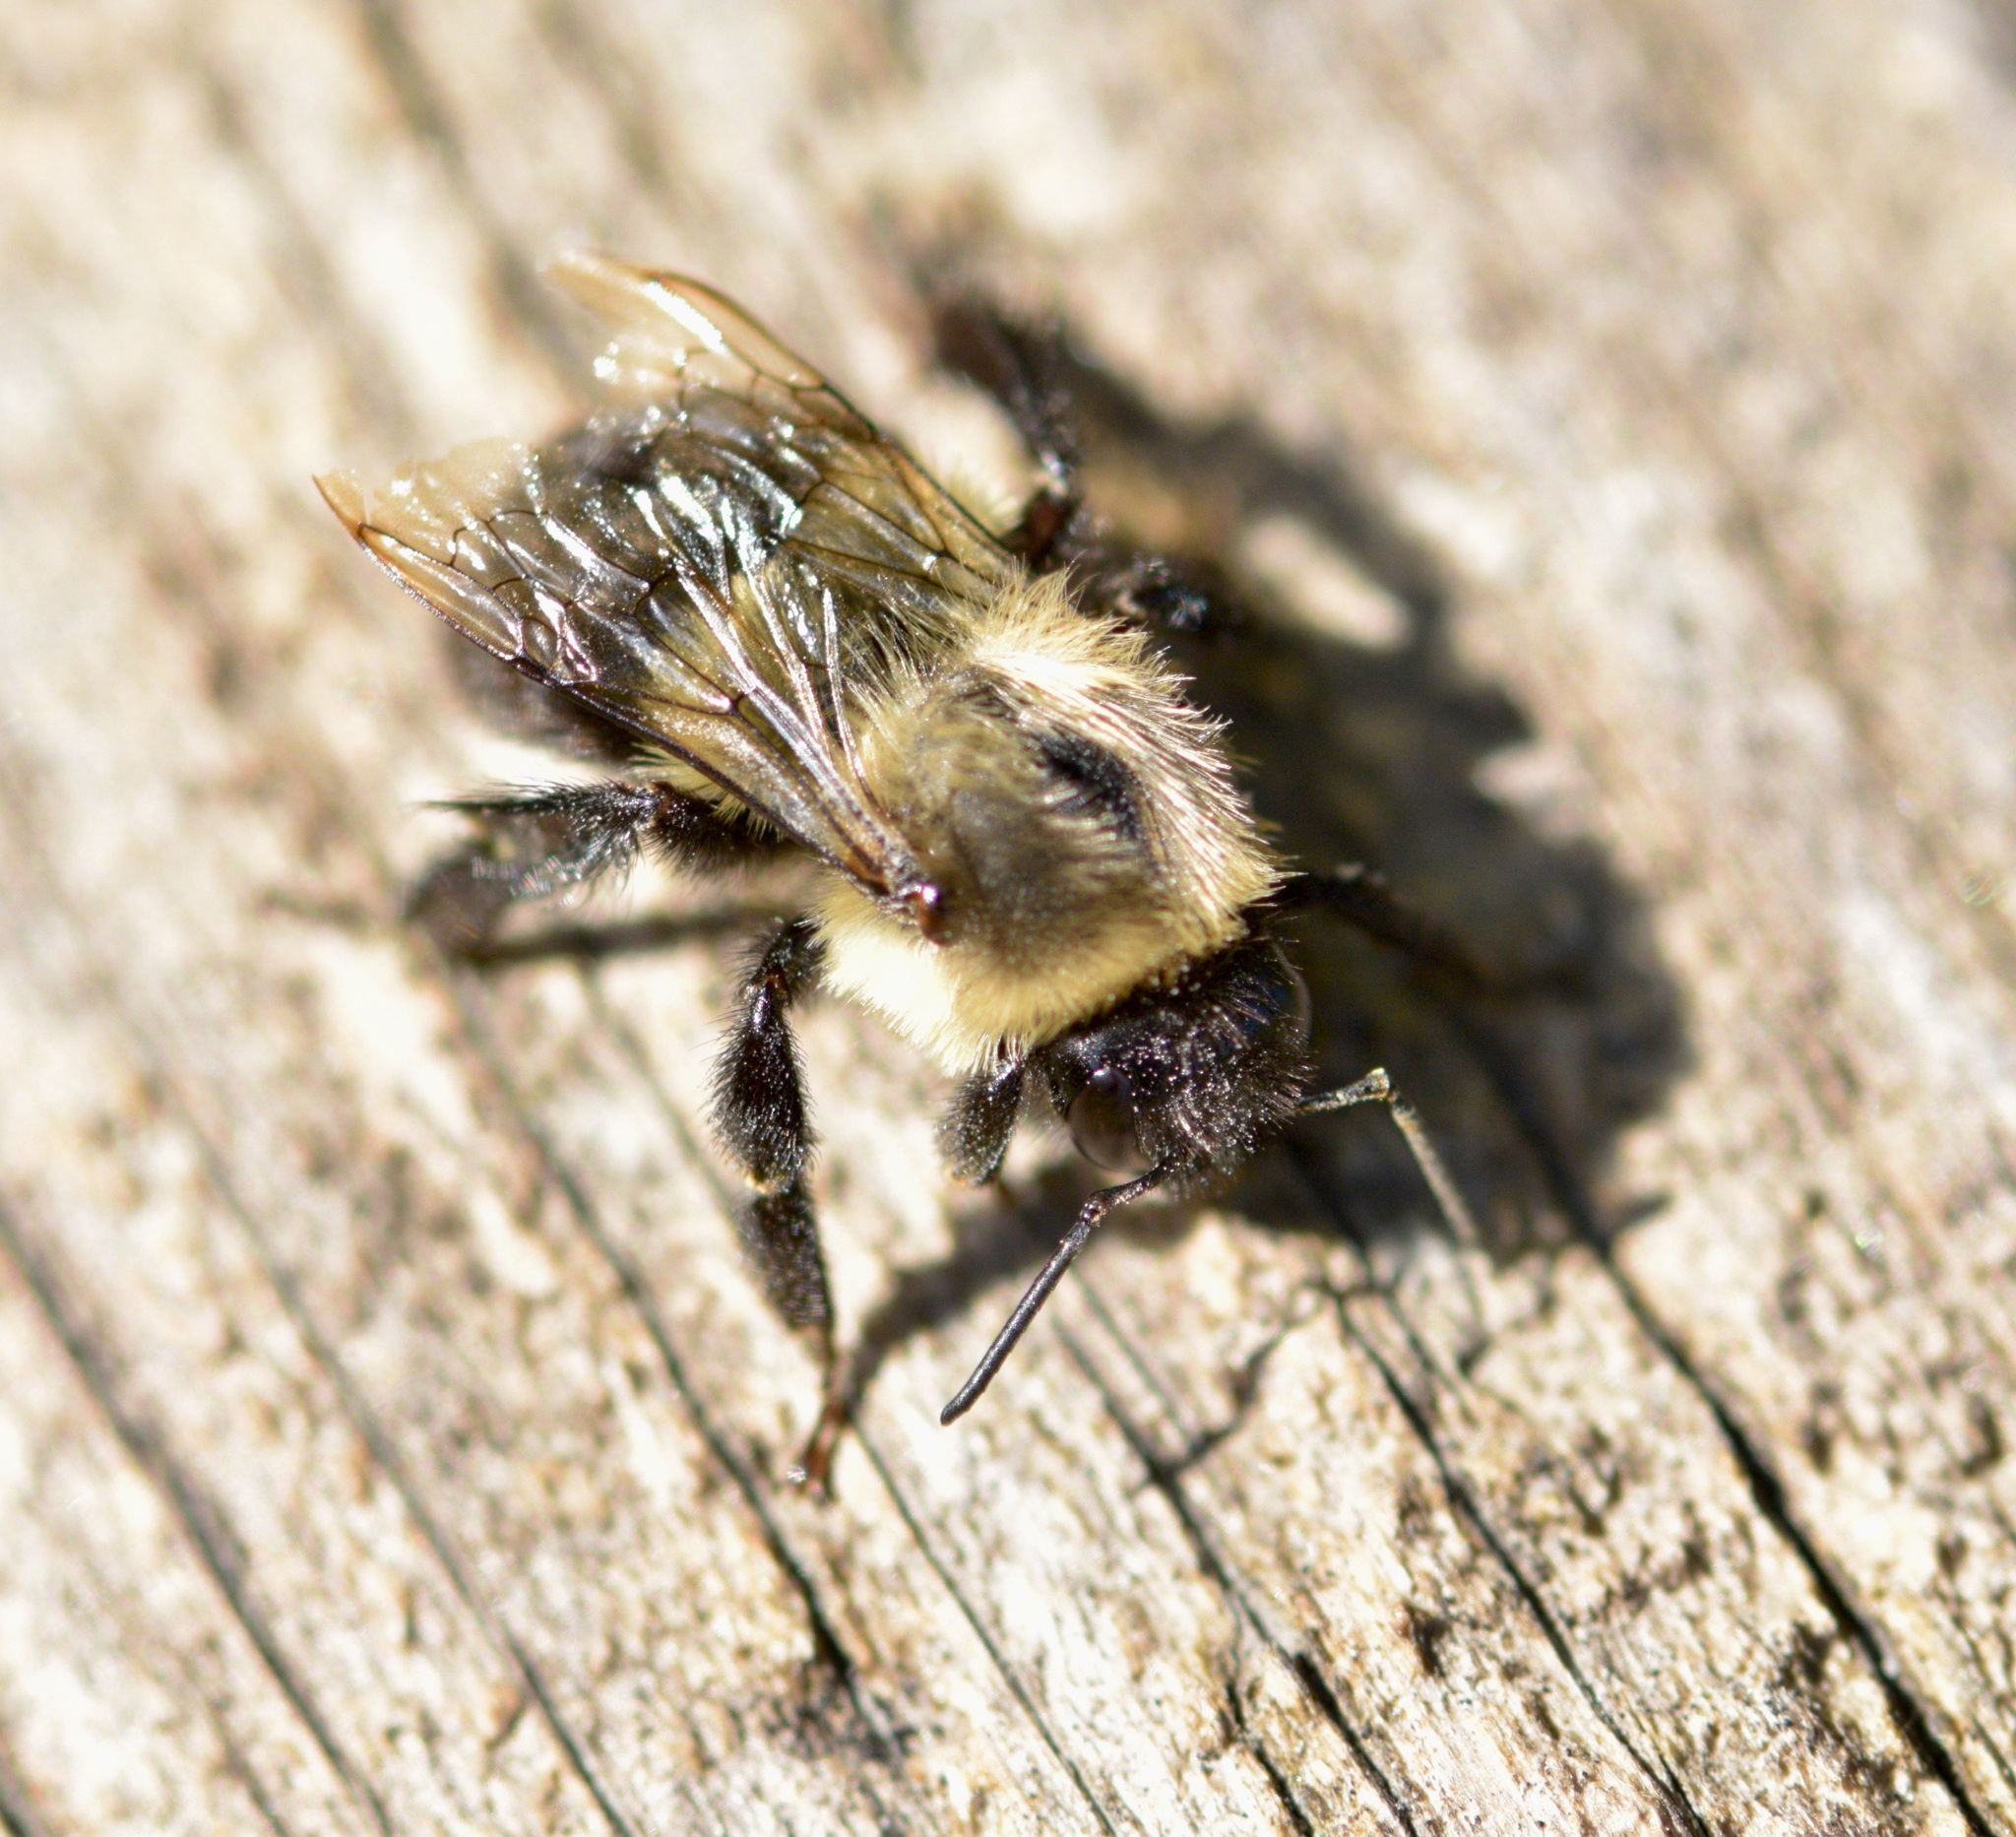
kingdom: Animalia
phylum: Arthropoda
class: Insecta
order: Hymenoptera
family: Apidae
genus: Bombus
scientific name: Bombus impatiens
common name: Common eastern bumble bee
